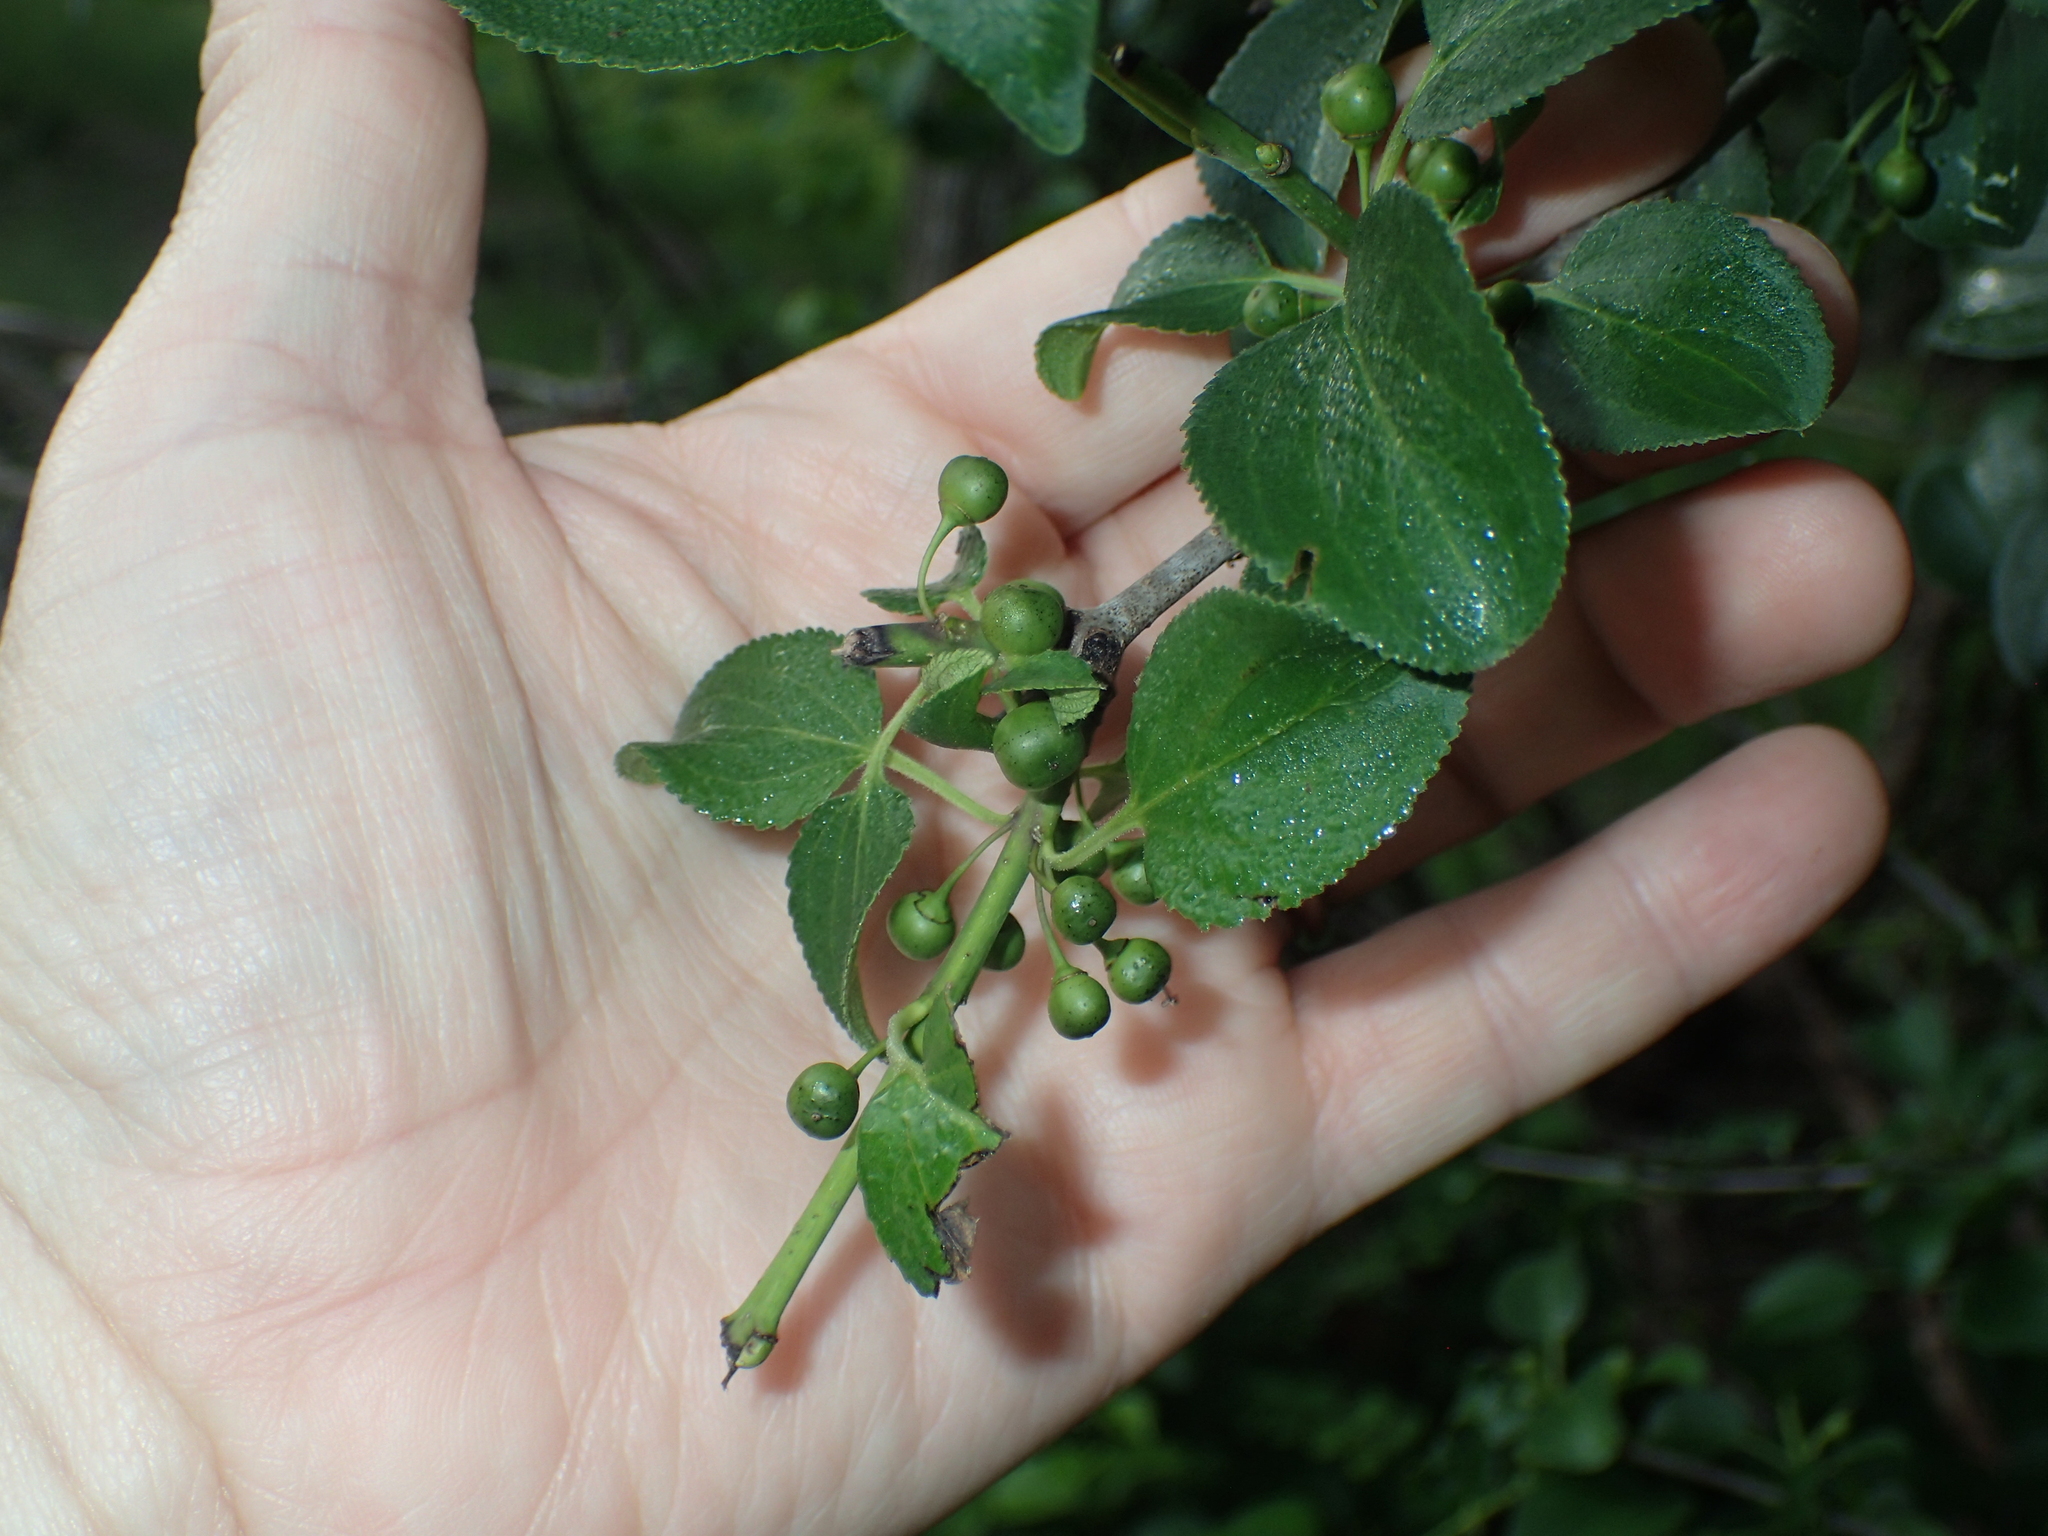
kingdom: Plantae
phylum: Tracheophyta
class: Magnoliopsida
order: Rosales
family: Rhamnaceae
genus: Rhamnus
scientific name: Rhamnus cathartica
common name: Common buckthorn
